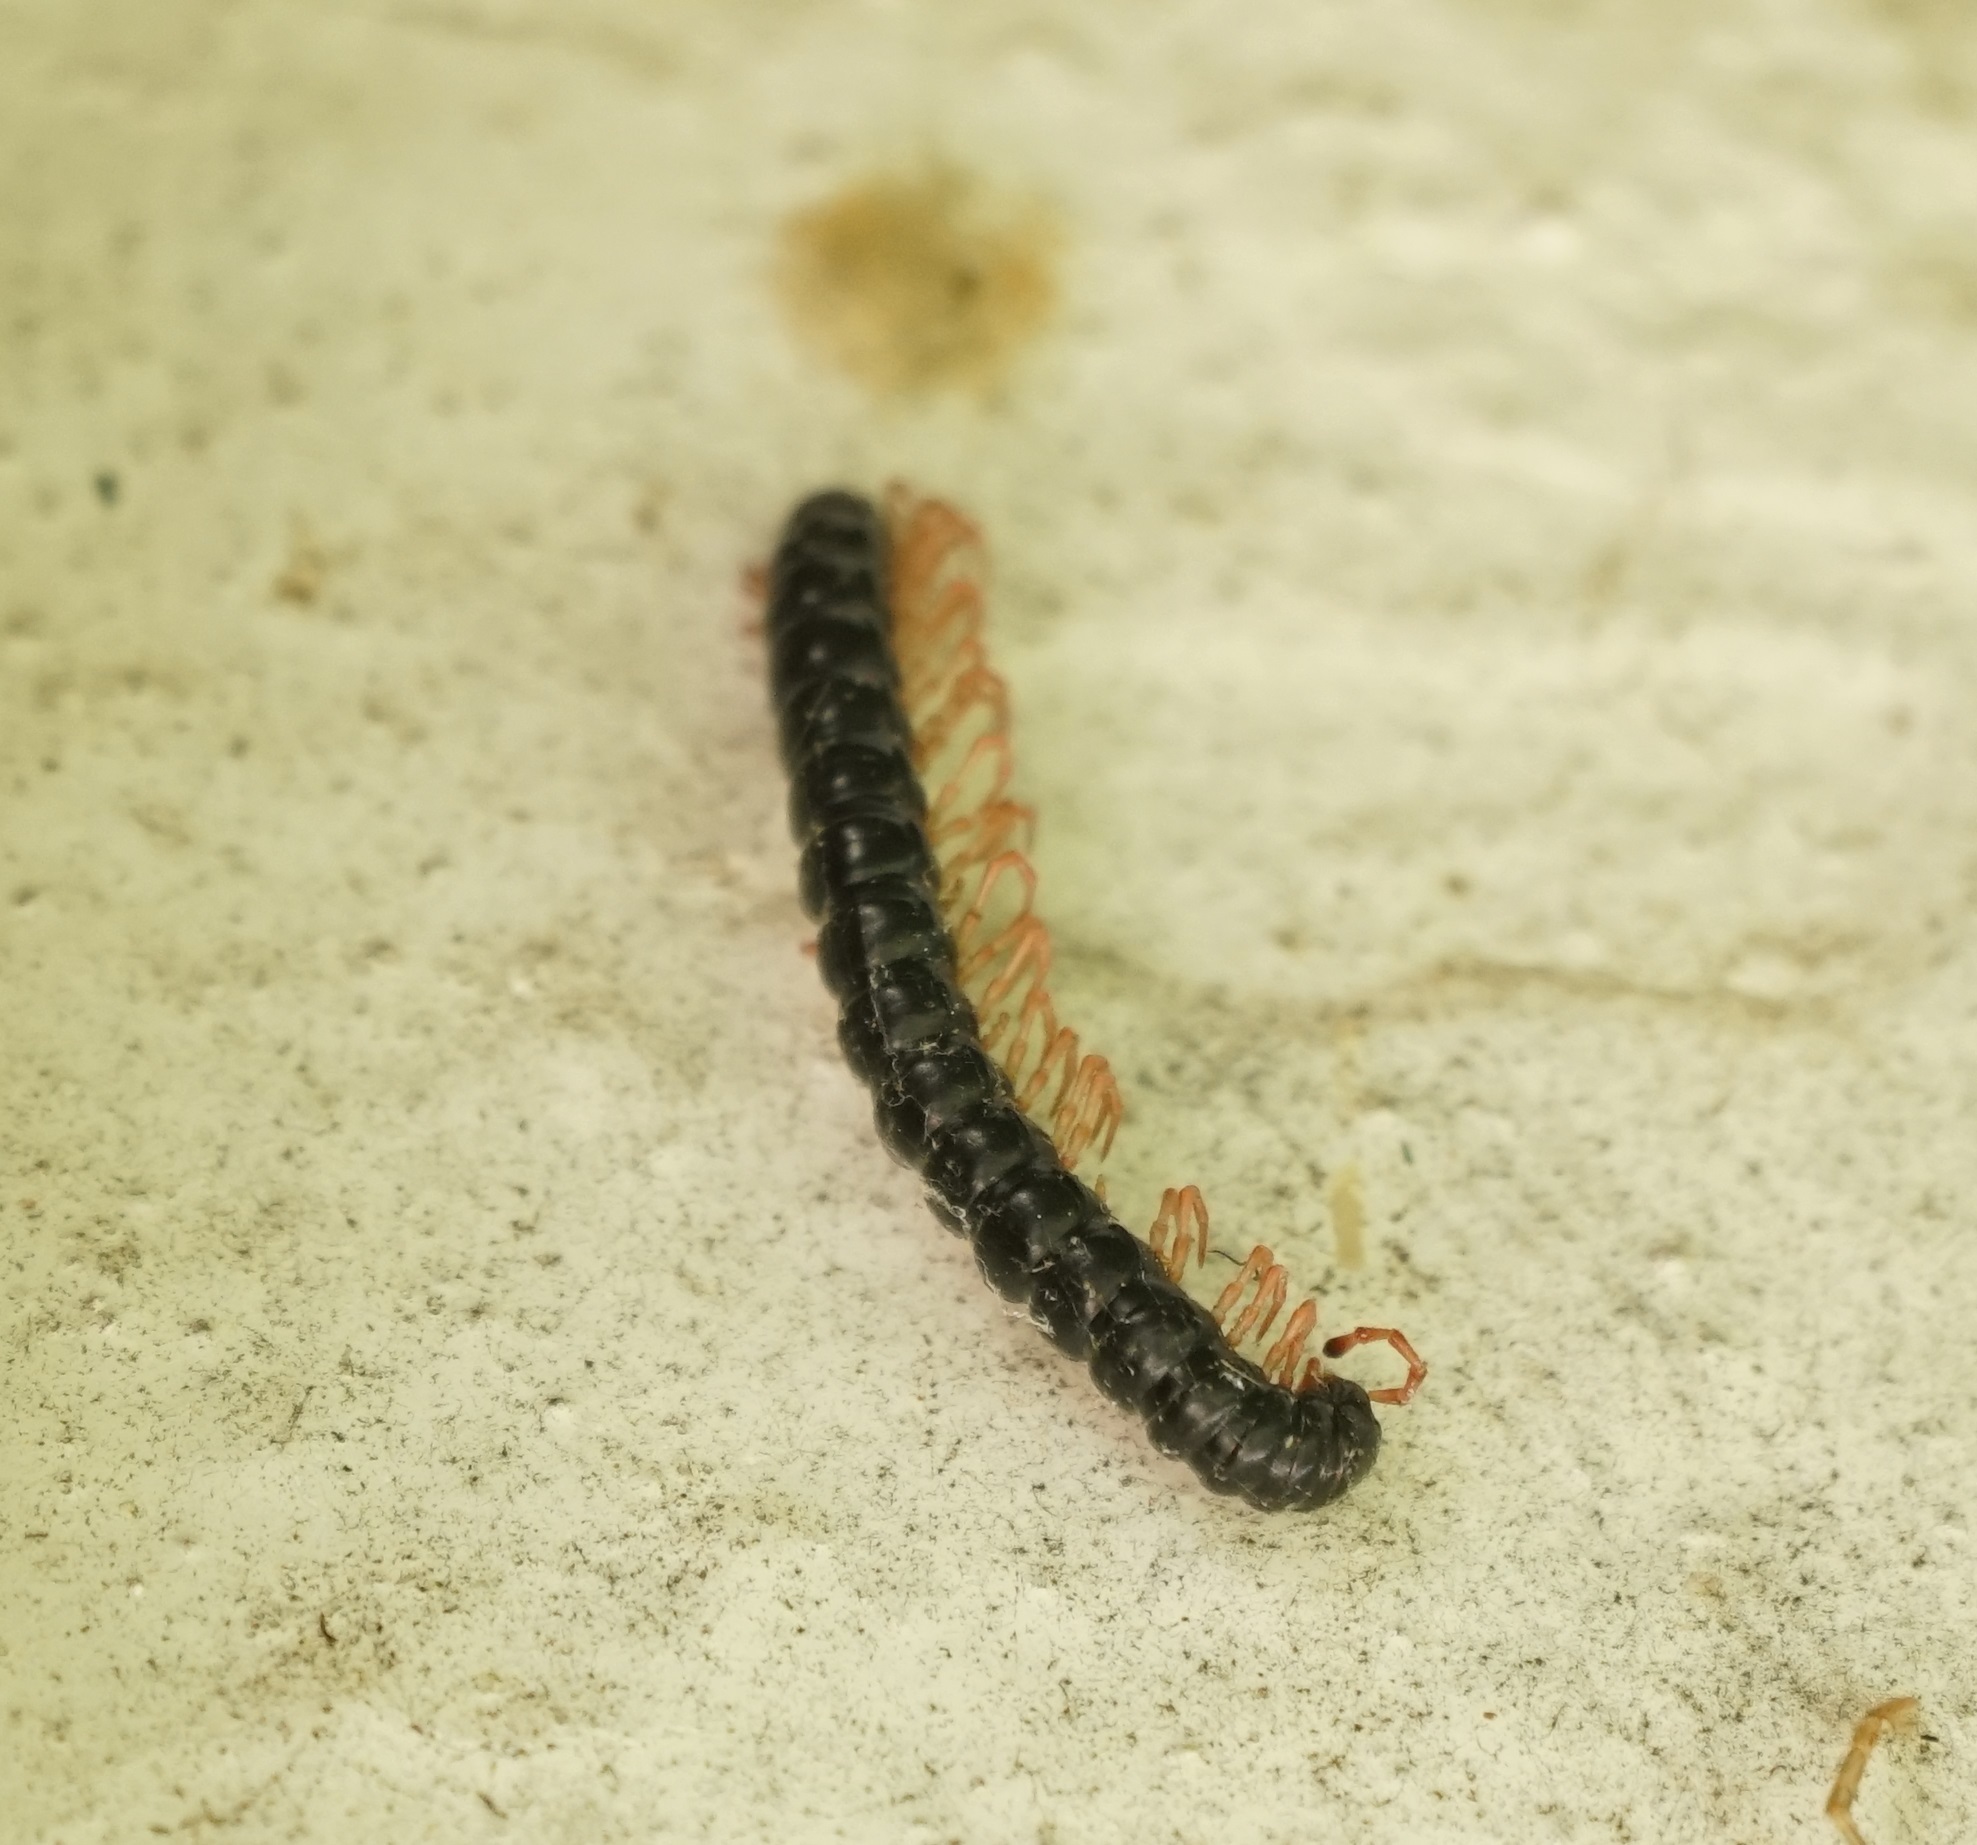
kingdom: Animalia
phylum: Arthropoda
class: Diplopoda
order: Polydesmida
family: Paradoxosomatidae
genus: Heterocladosoma
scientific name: Heterocladosoma
